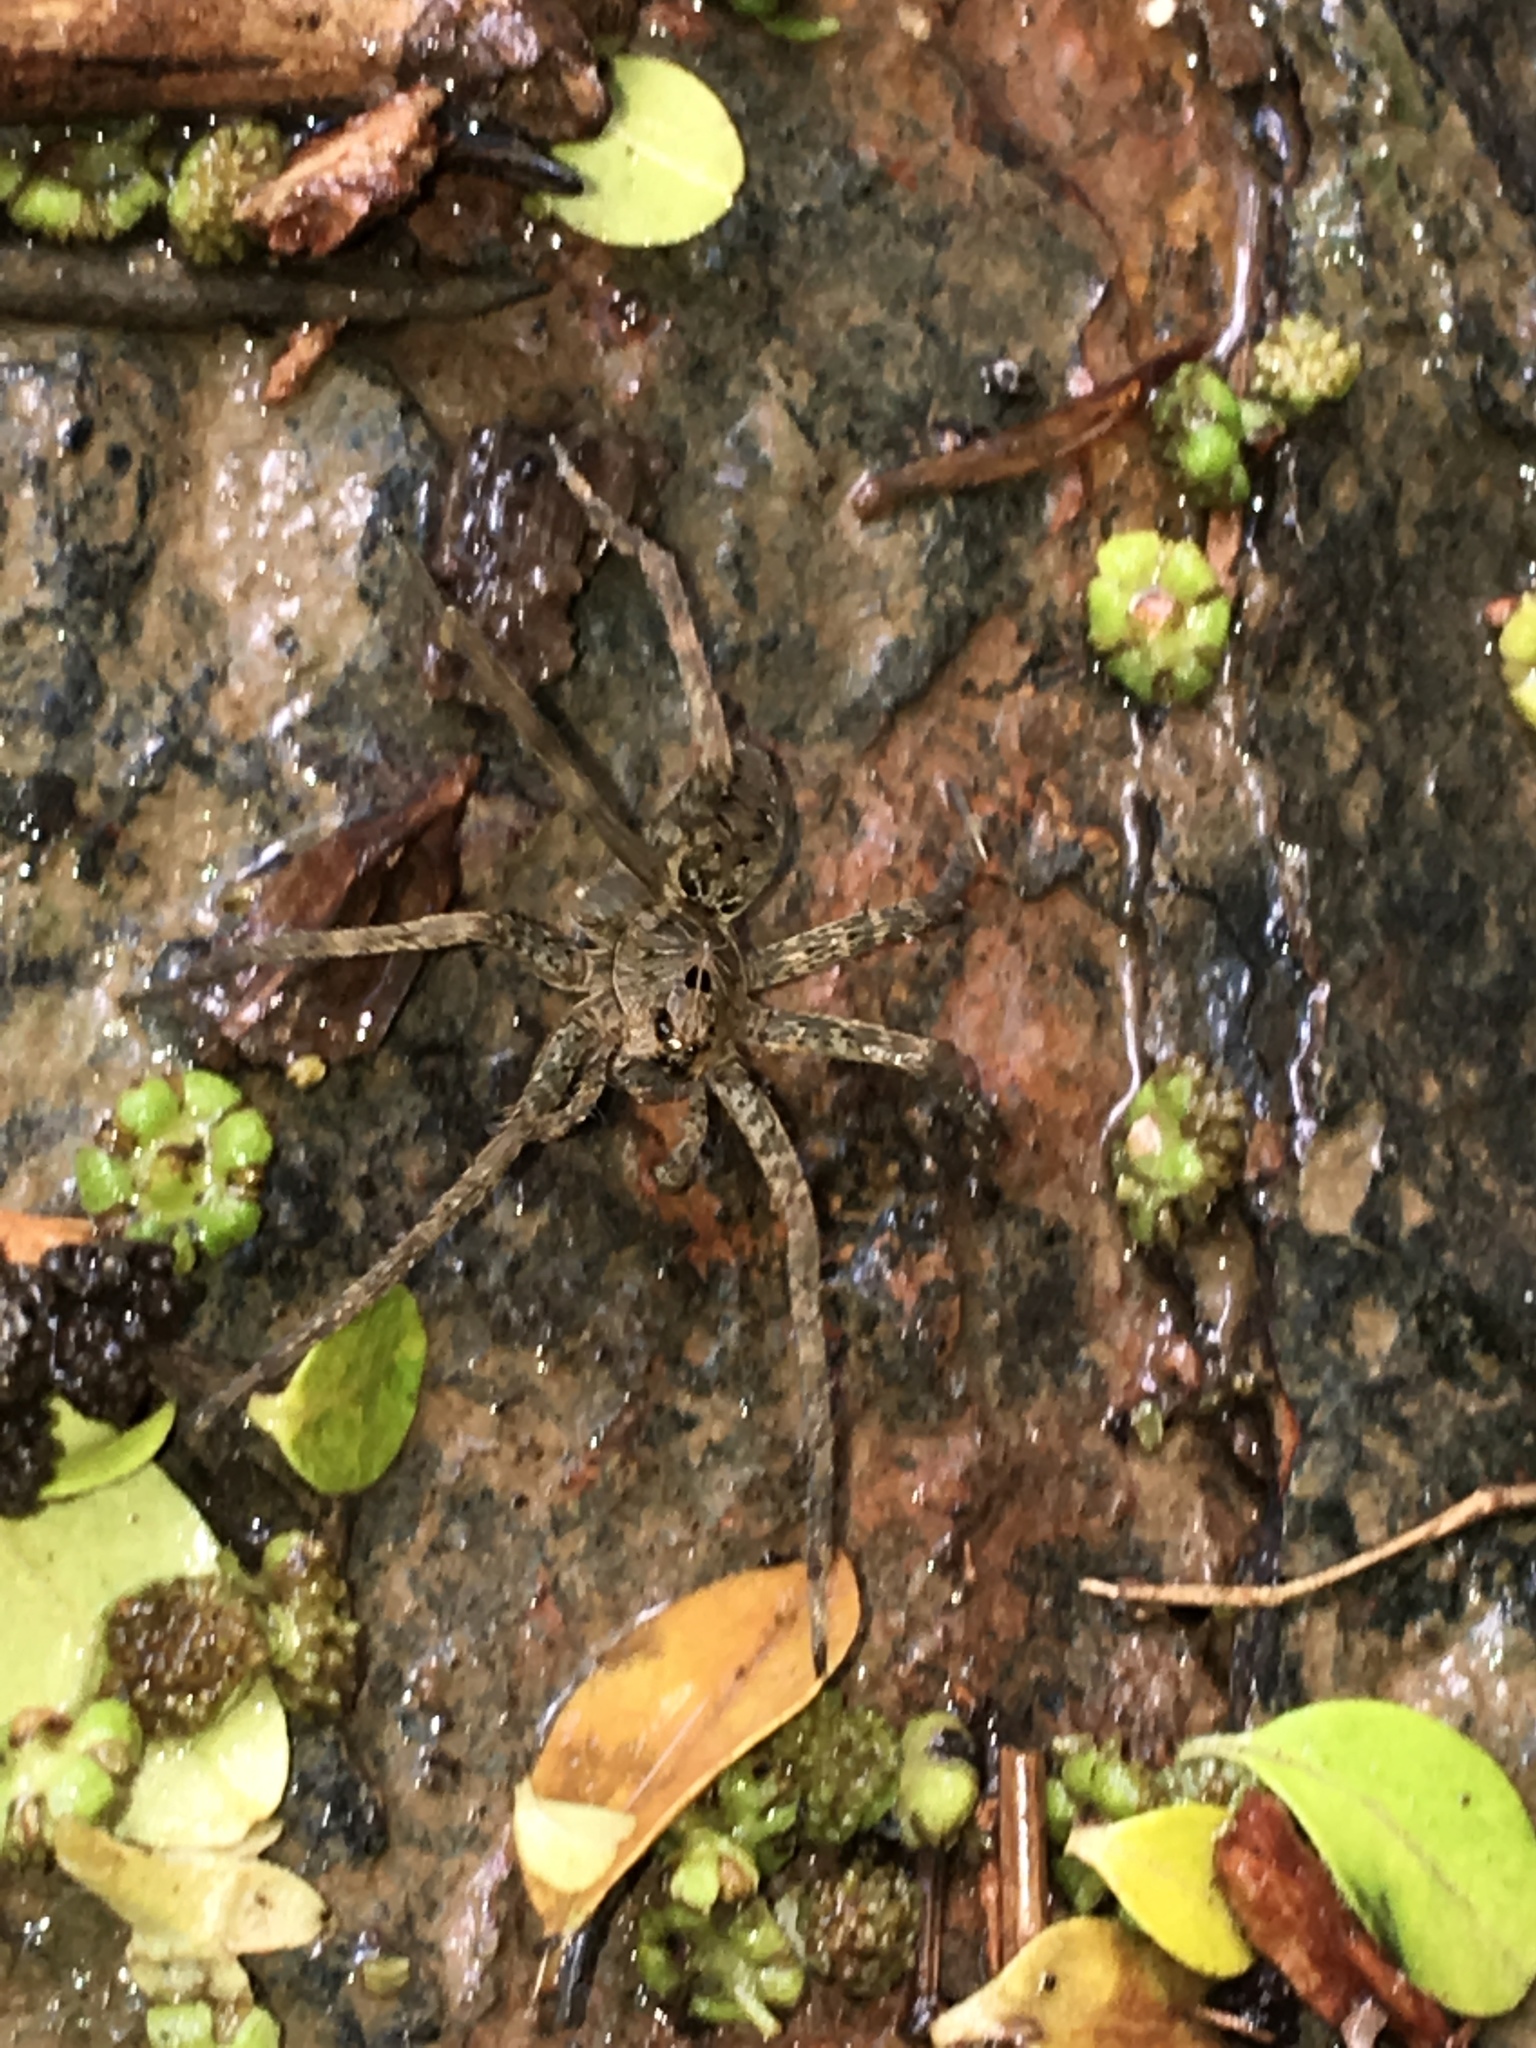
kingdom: Animalia
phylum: Arthropoda
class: Arachnida
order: Araneae
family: Pisauridae
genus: Dolomedes
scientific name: Dolomedes vittatus
